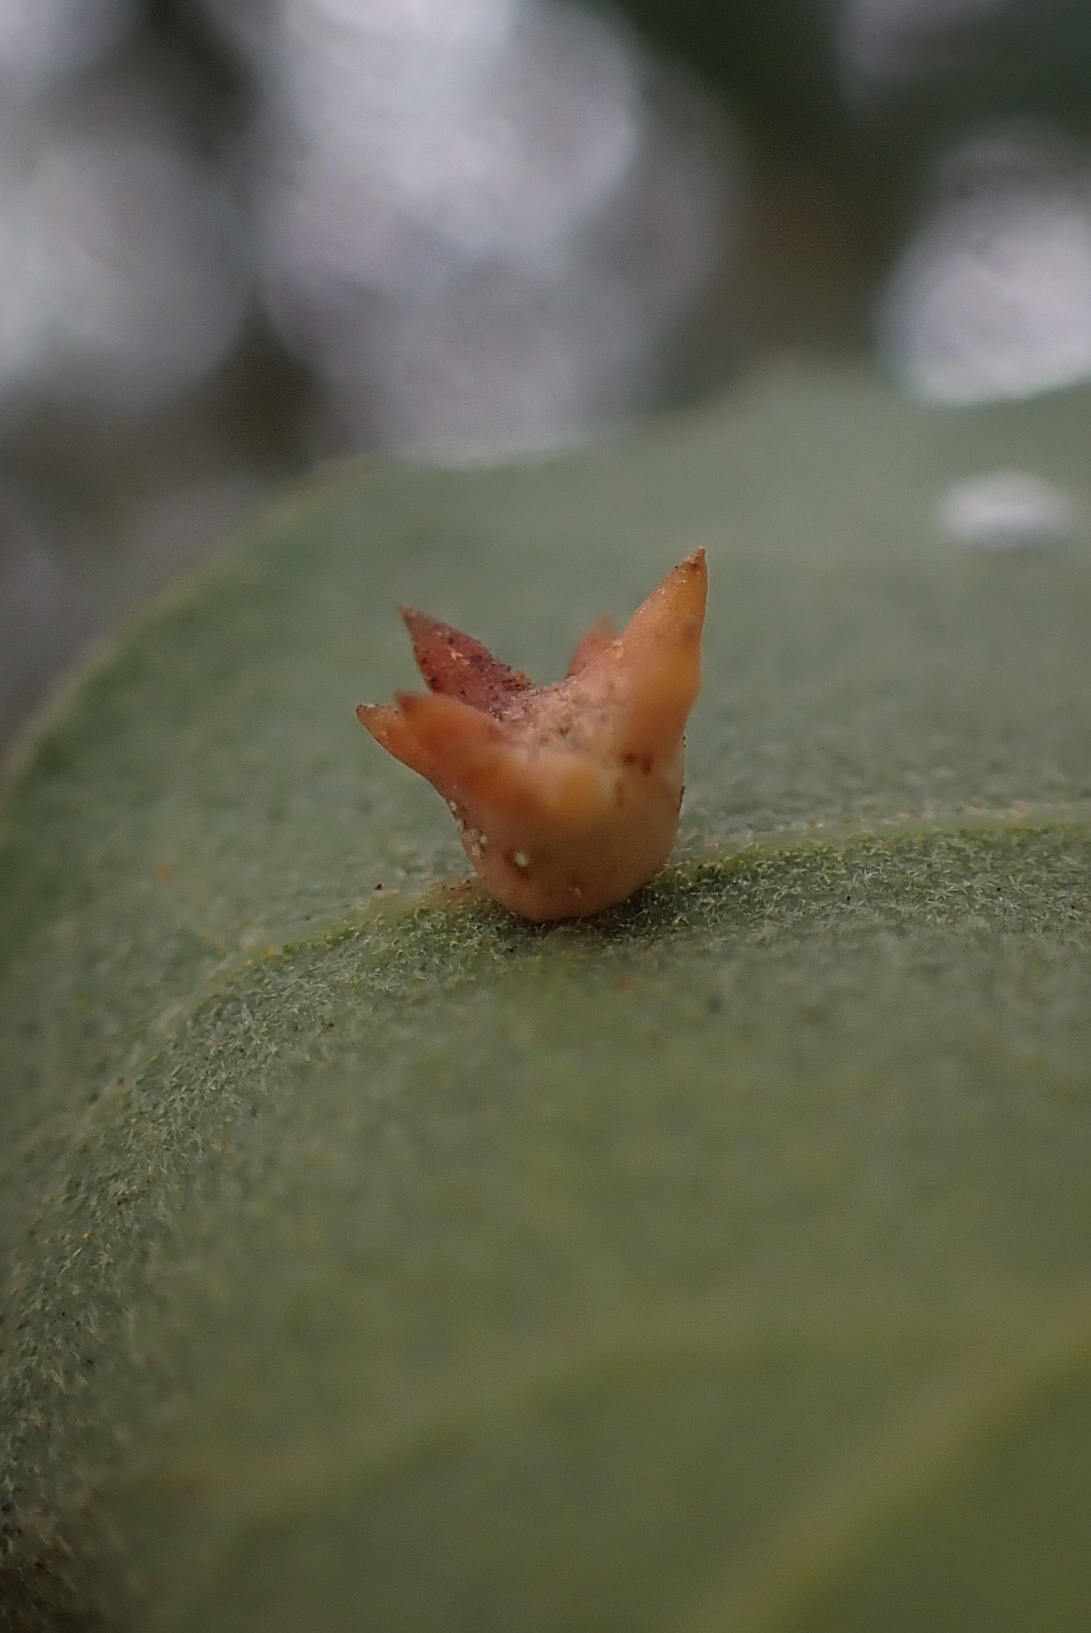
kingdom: Animalia
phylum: Arthropoda
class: Insecta
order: Hymenoptera
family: Cynipidae
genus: Cynips
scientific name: Cynips douglasi
